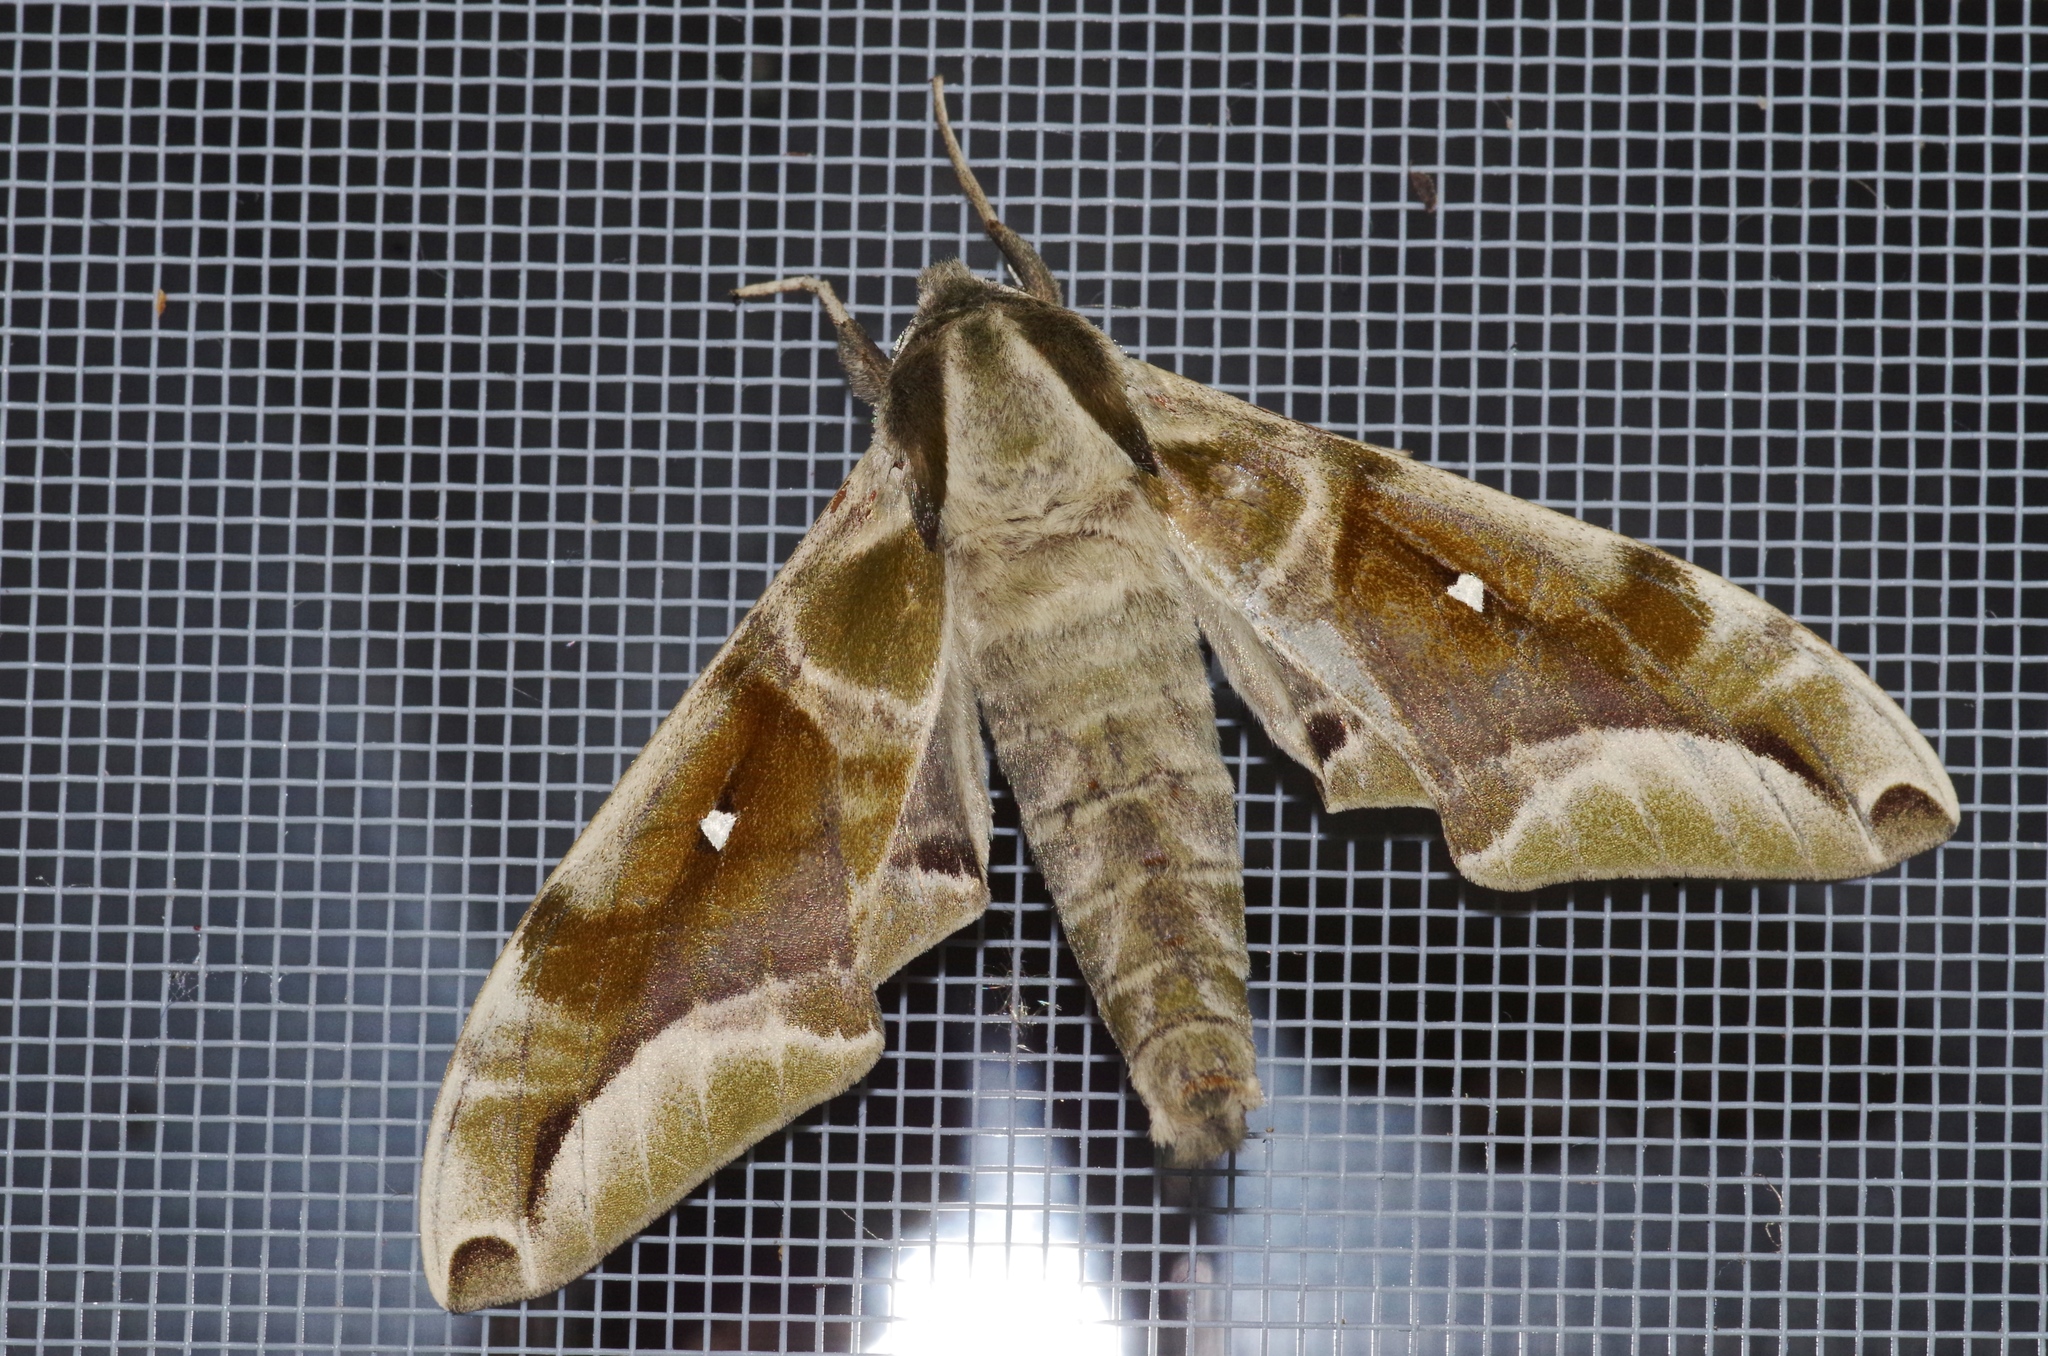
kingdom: Animalia
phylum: Arthropoda
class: Insecta
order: Lepidoptera
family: Sphingidae
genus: Parum
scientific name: Parum colligata
